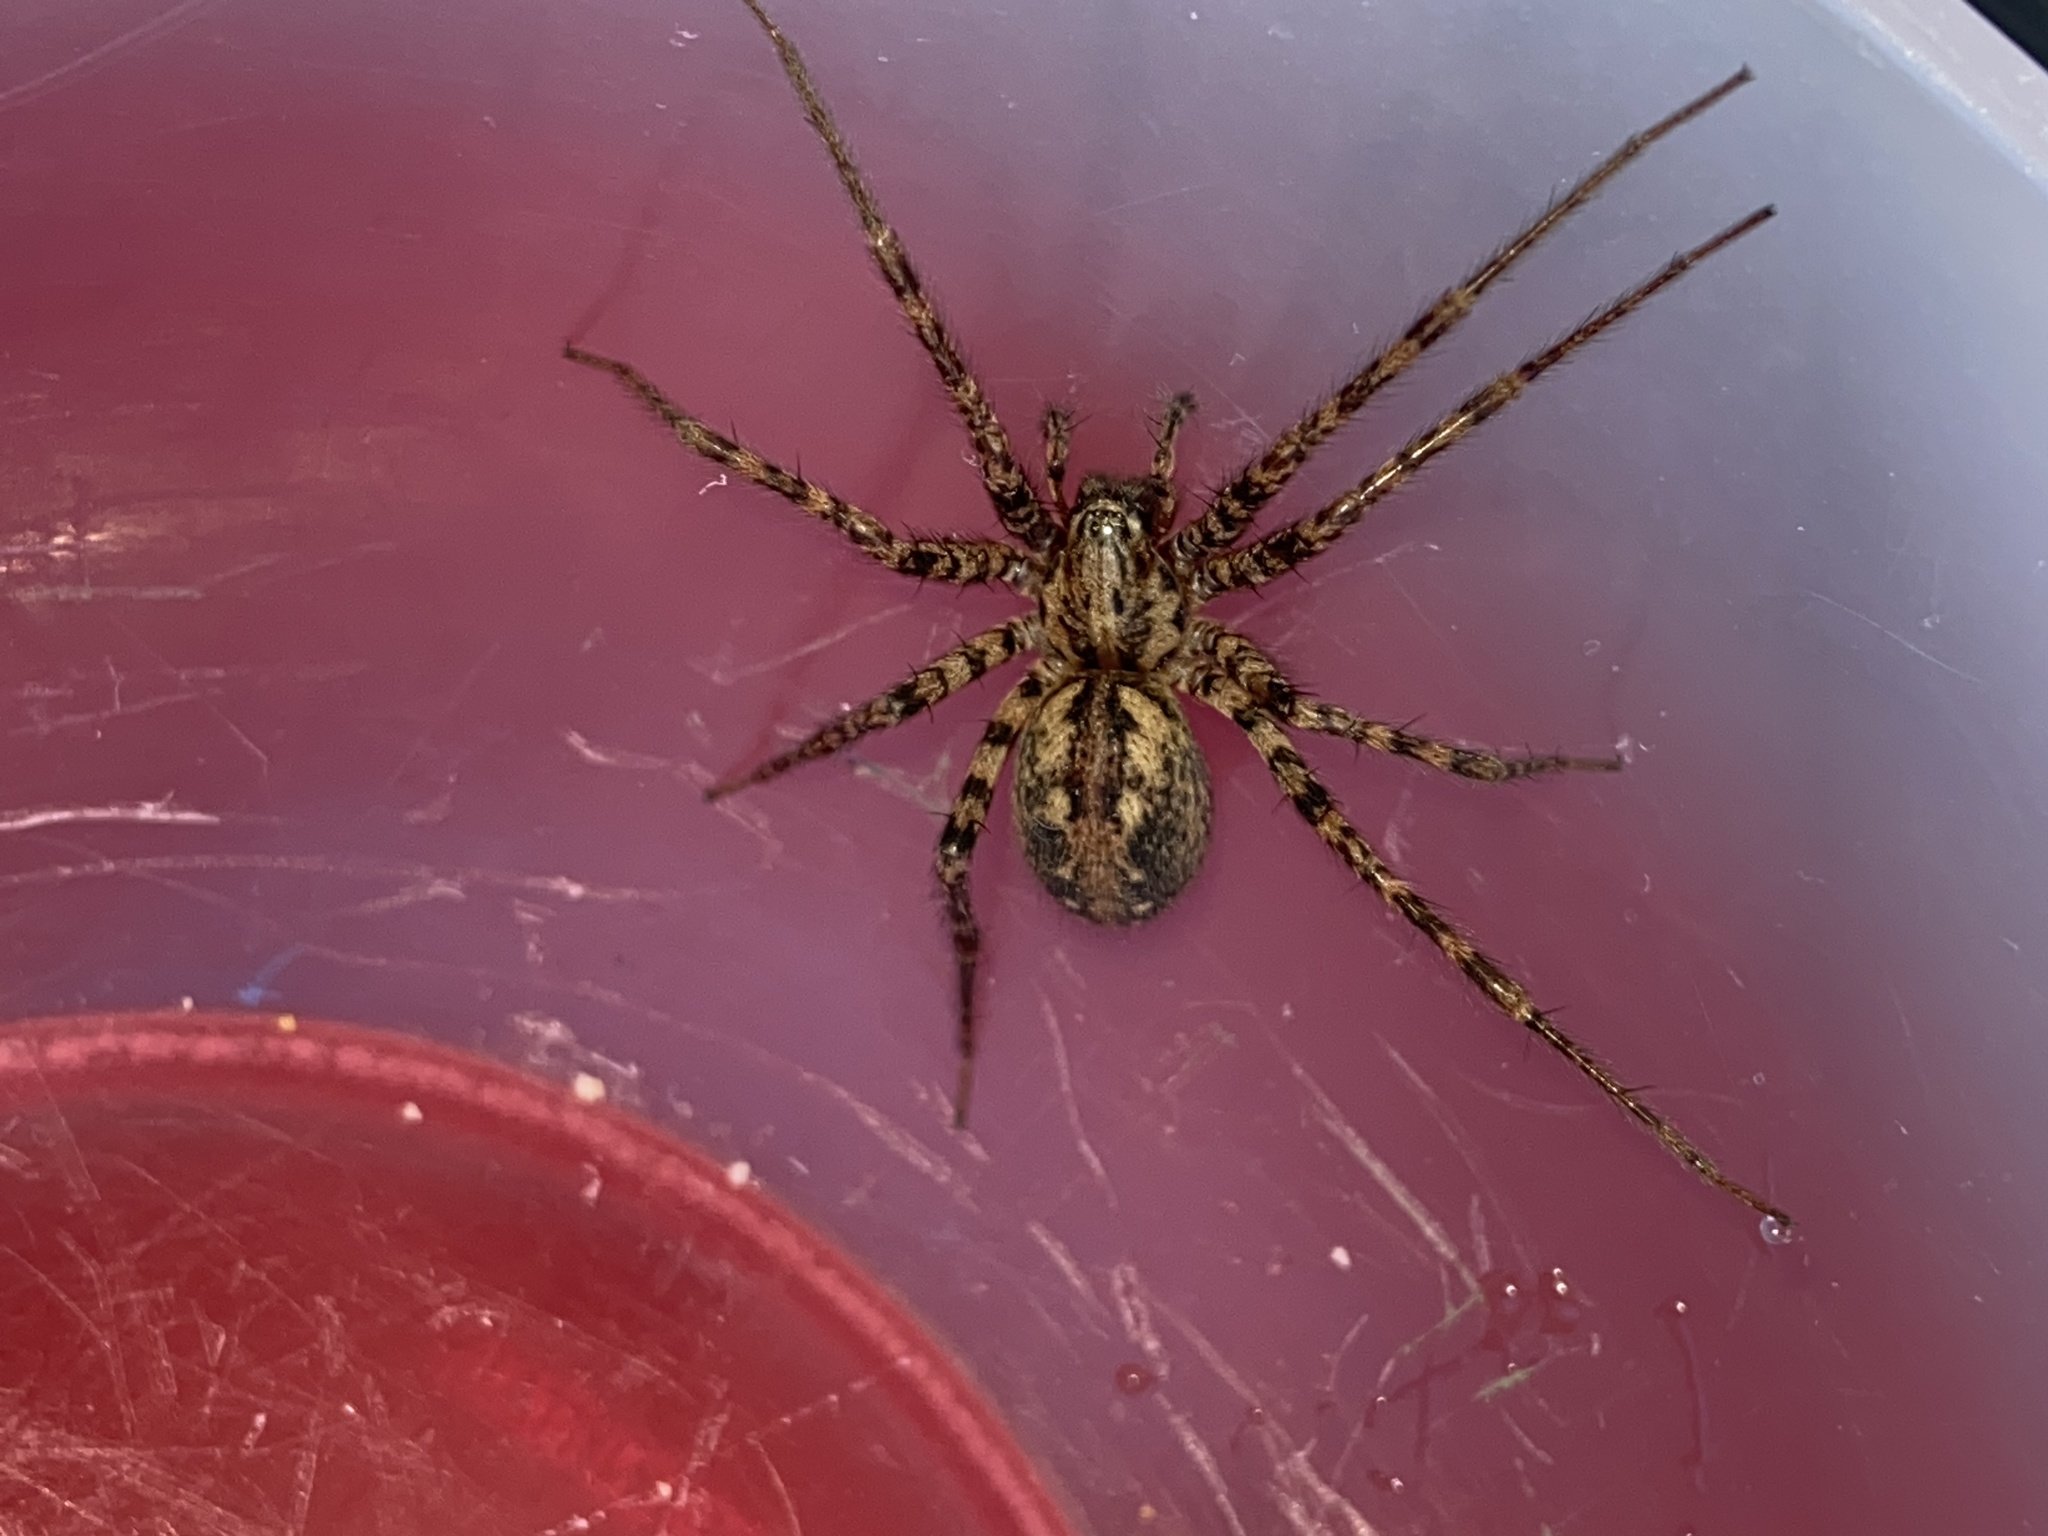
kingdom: Animalia
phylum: Arthropoda
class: Arachnida
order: Araneae
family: Agelenidae
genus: Tegenaria
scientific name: Tegenaria ferruginea
